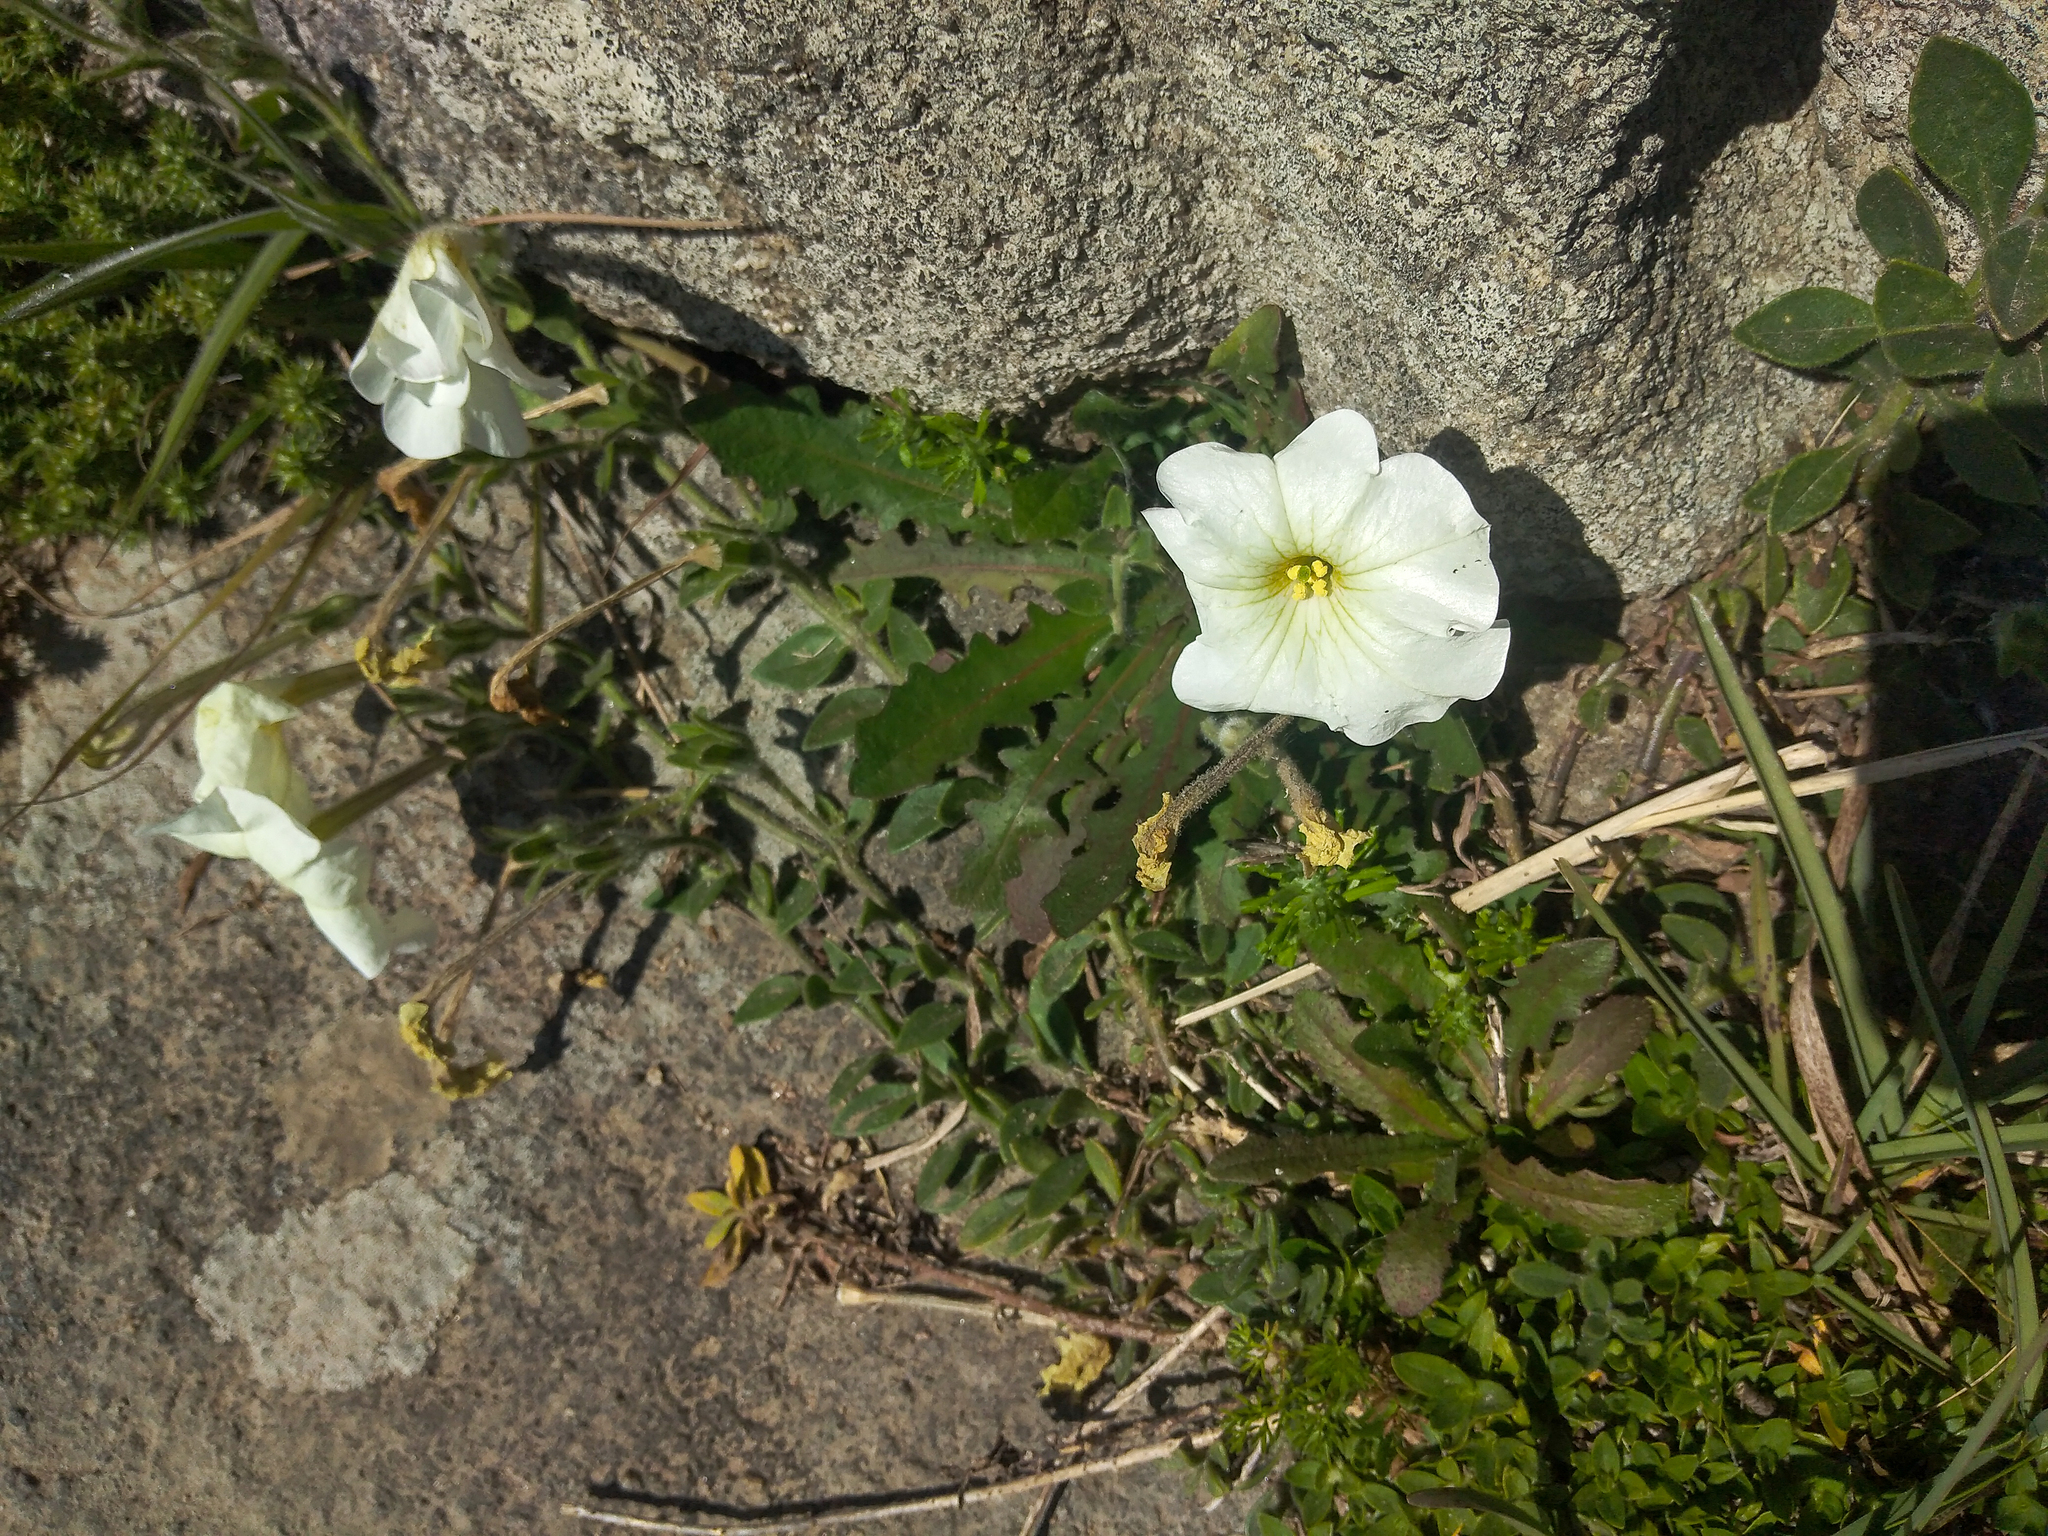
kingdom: Plantae
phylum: Tracheophyta
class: Magnoliopsida
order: Solanales
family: Solanaceae
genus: Petunia
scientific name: Petunia axillaris
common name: Large white petunia
